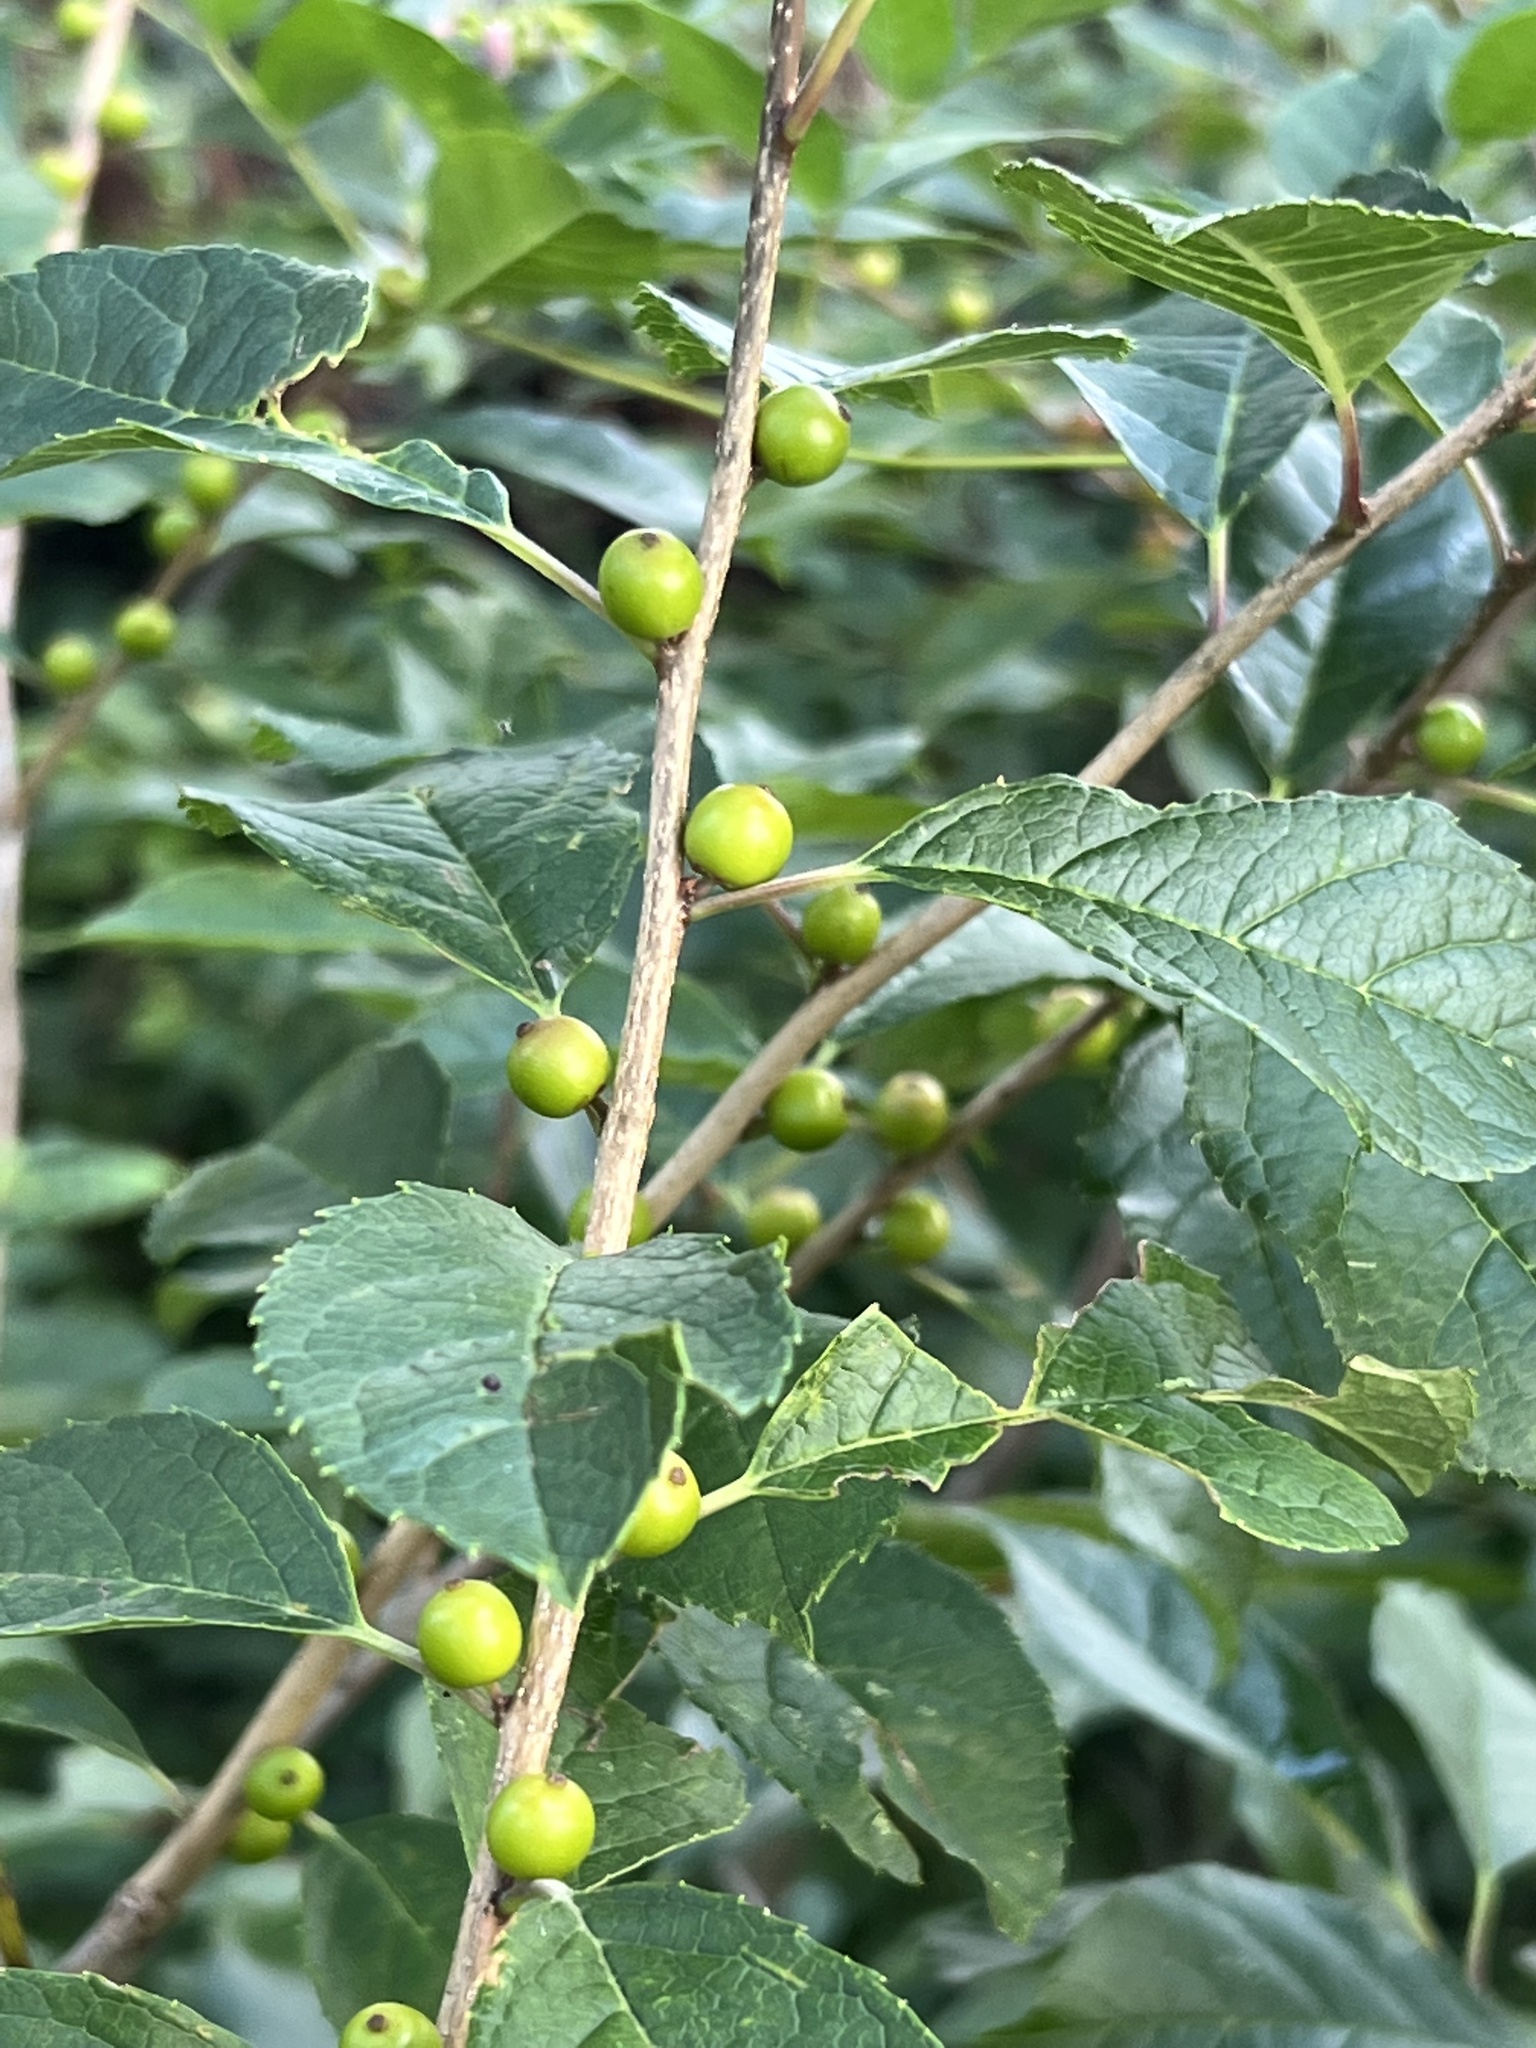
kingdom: Plantae
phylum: Tracheophyta
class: Magnoliopsida
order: Aquifoliales
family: Aquifoliaceae
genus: Ilex
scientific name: Ilex verticillata
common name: Virginia winterberry
